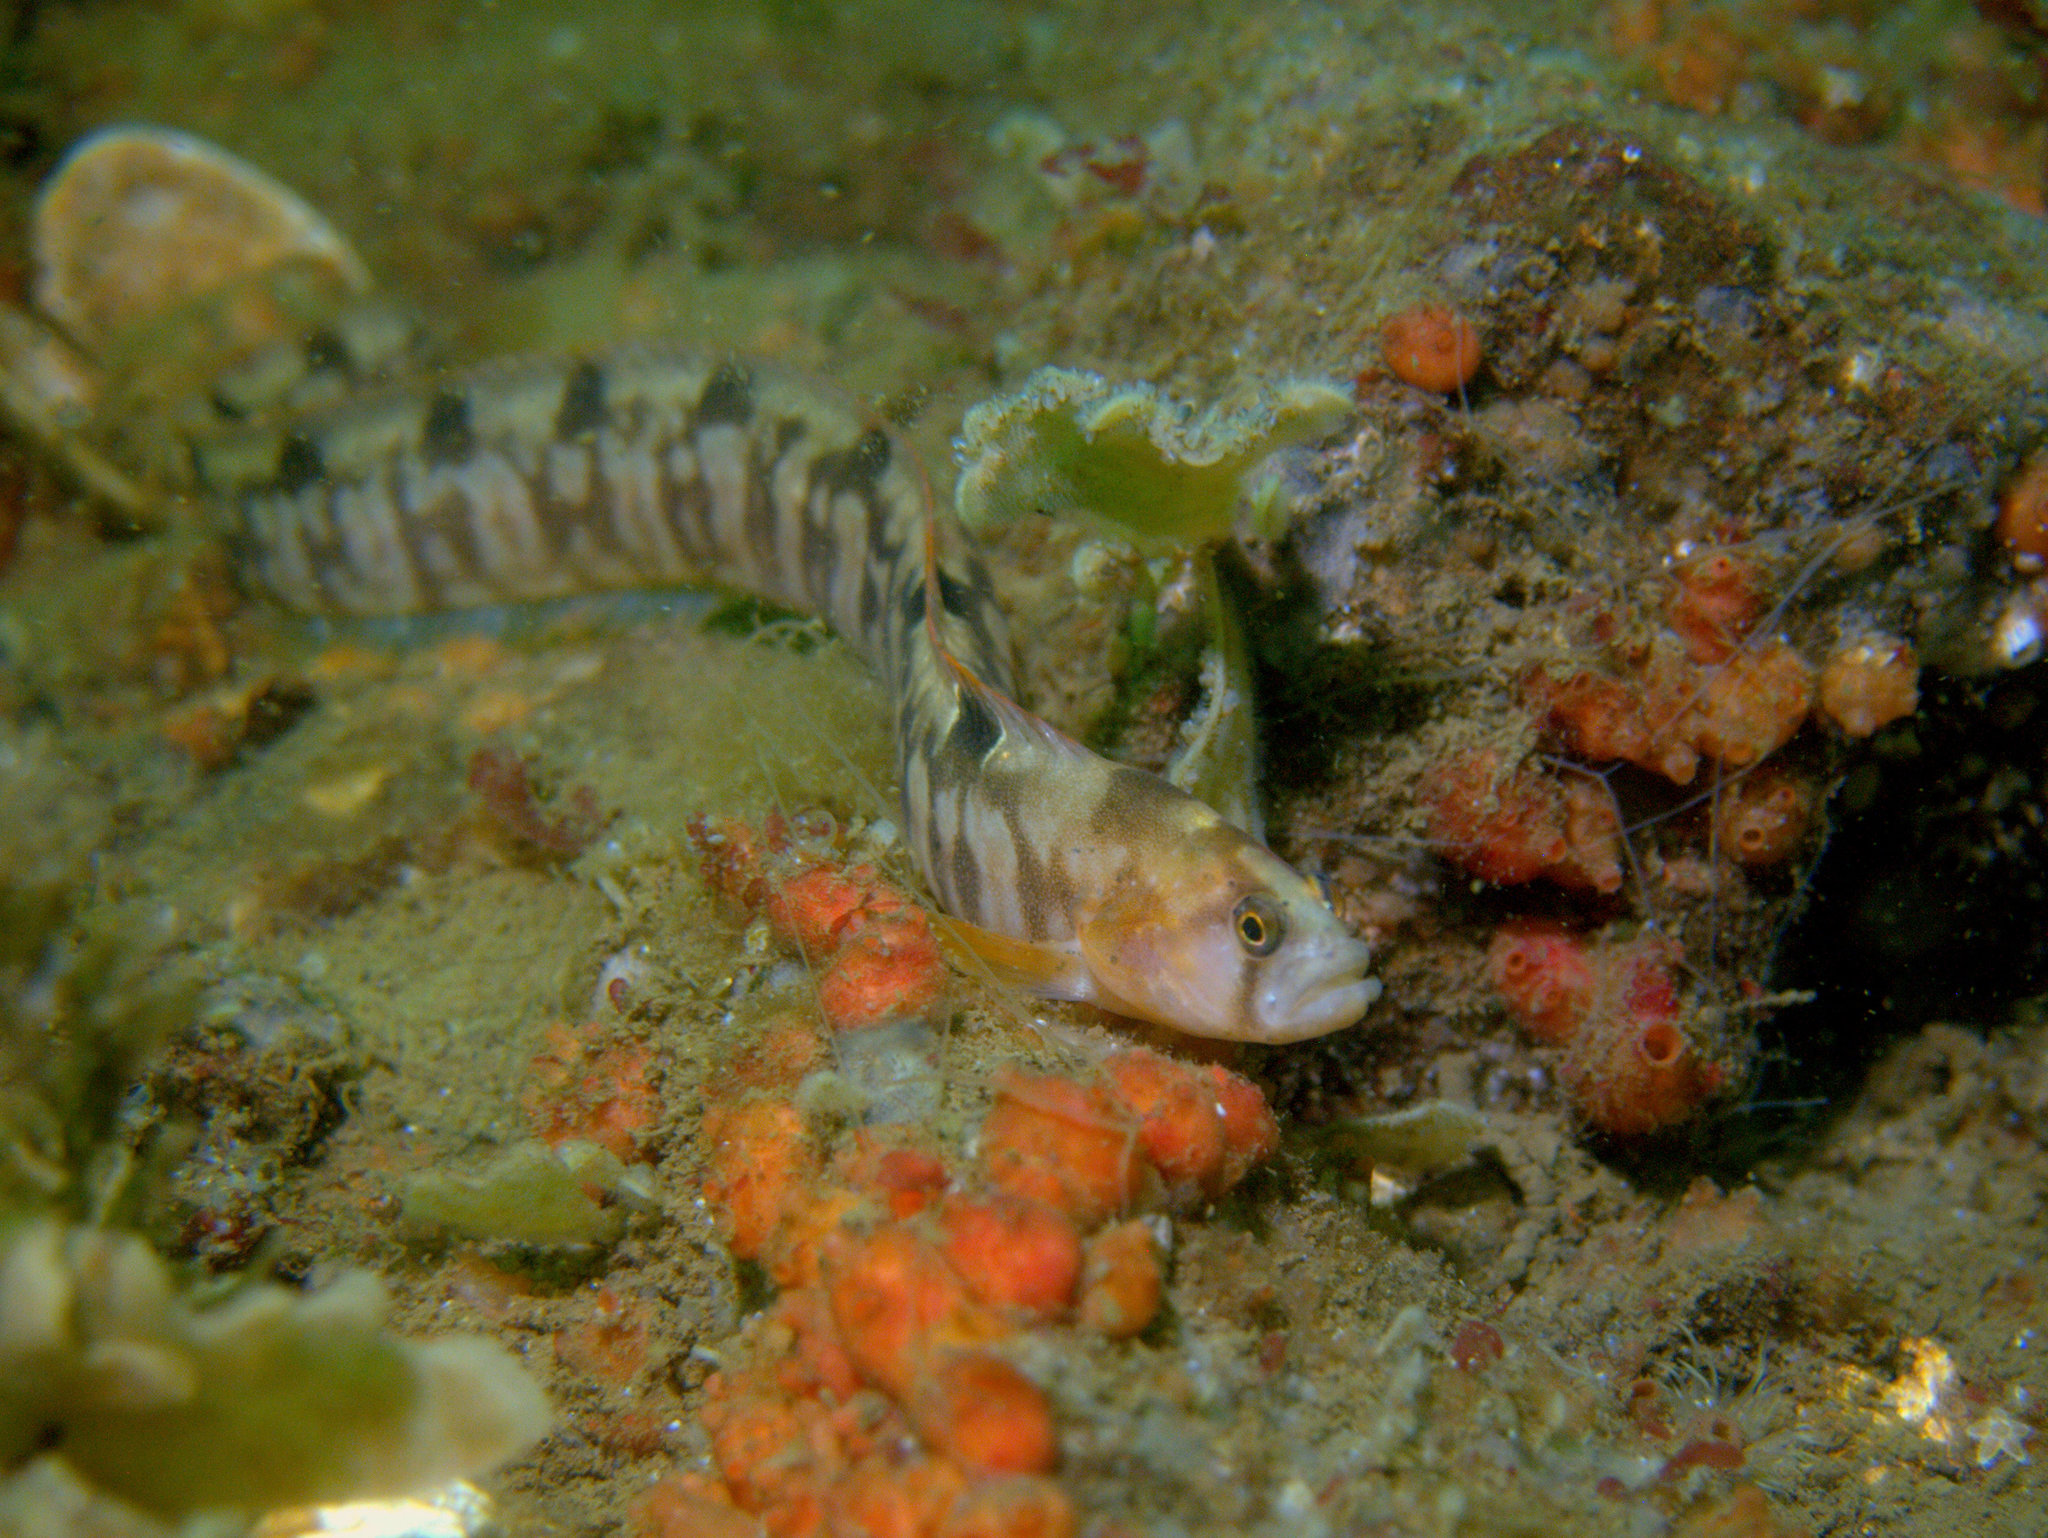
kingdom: Animalia
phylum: Chordata
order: Perciformes
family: Pholidae
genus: Pholis
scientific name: Pholis gunnellus
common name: Butterfish
